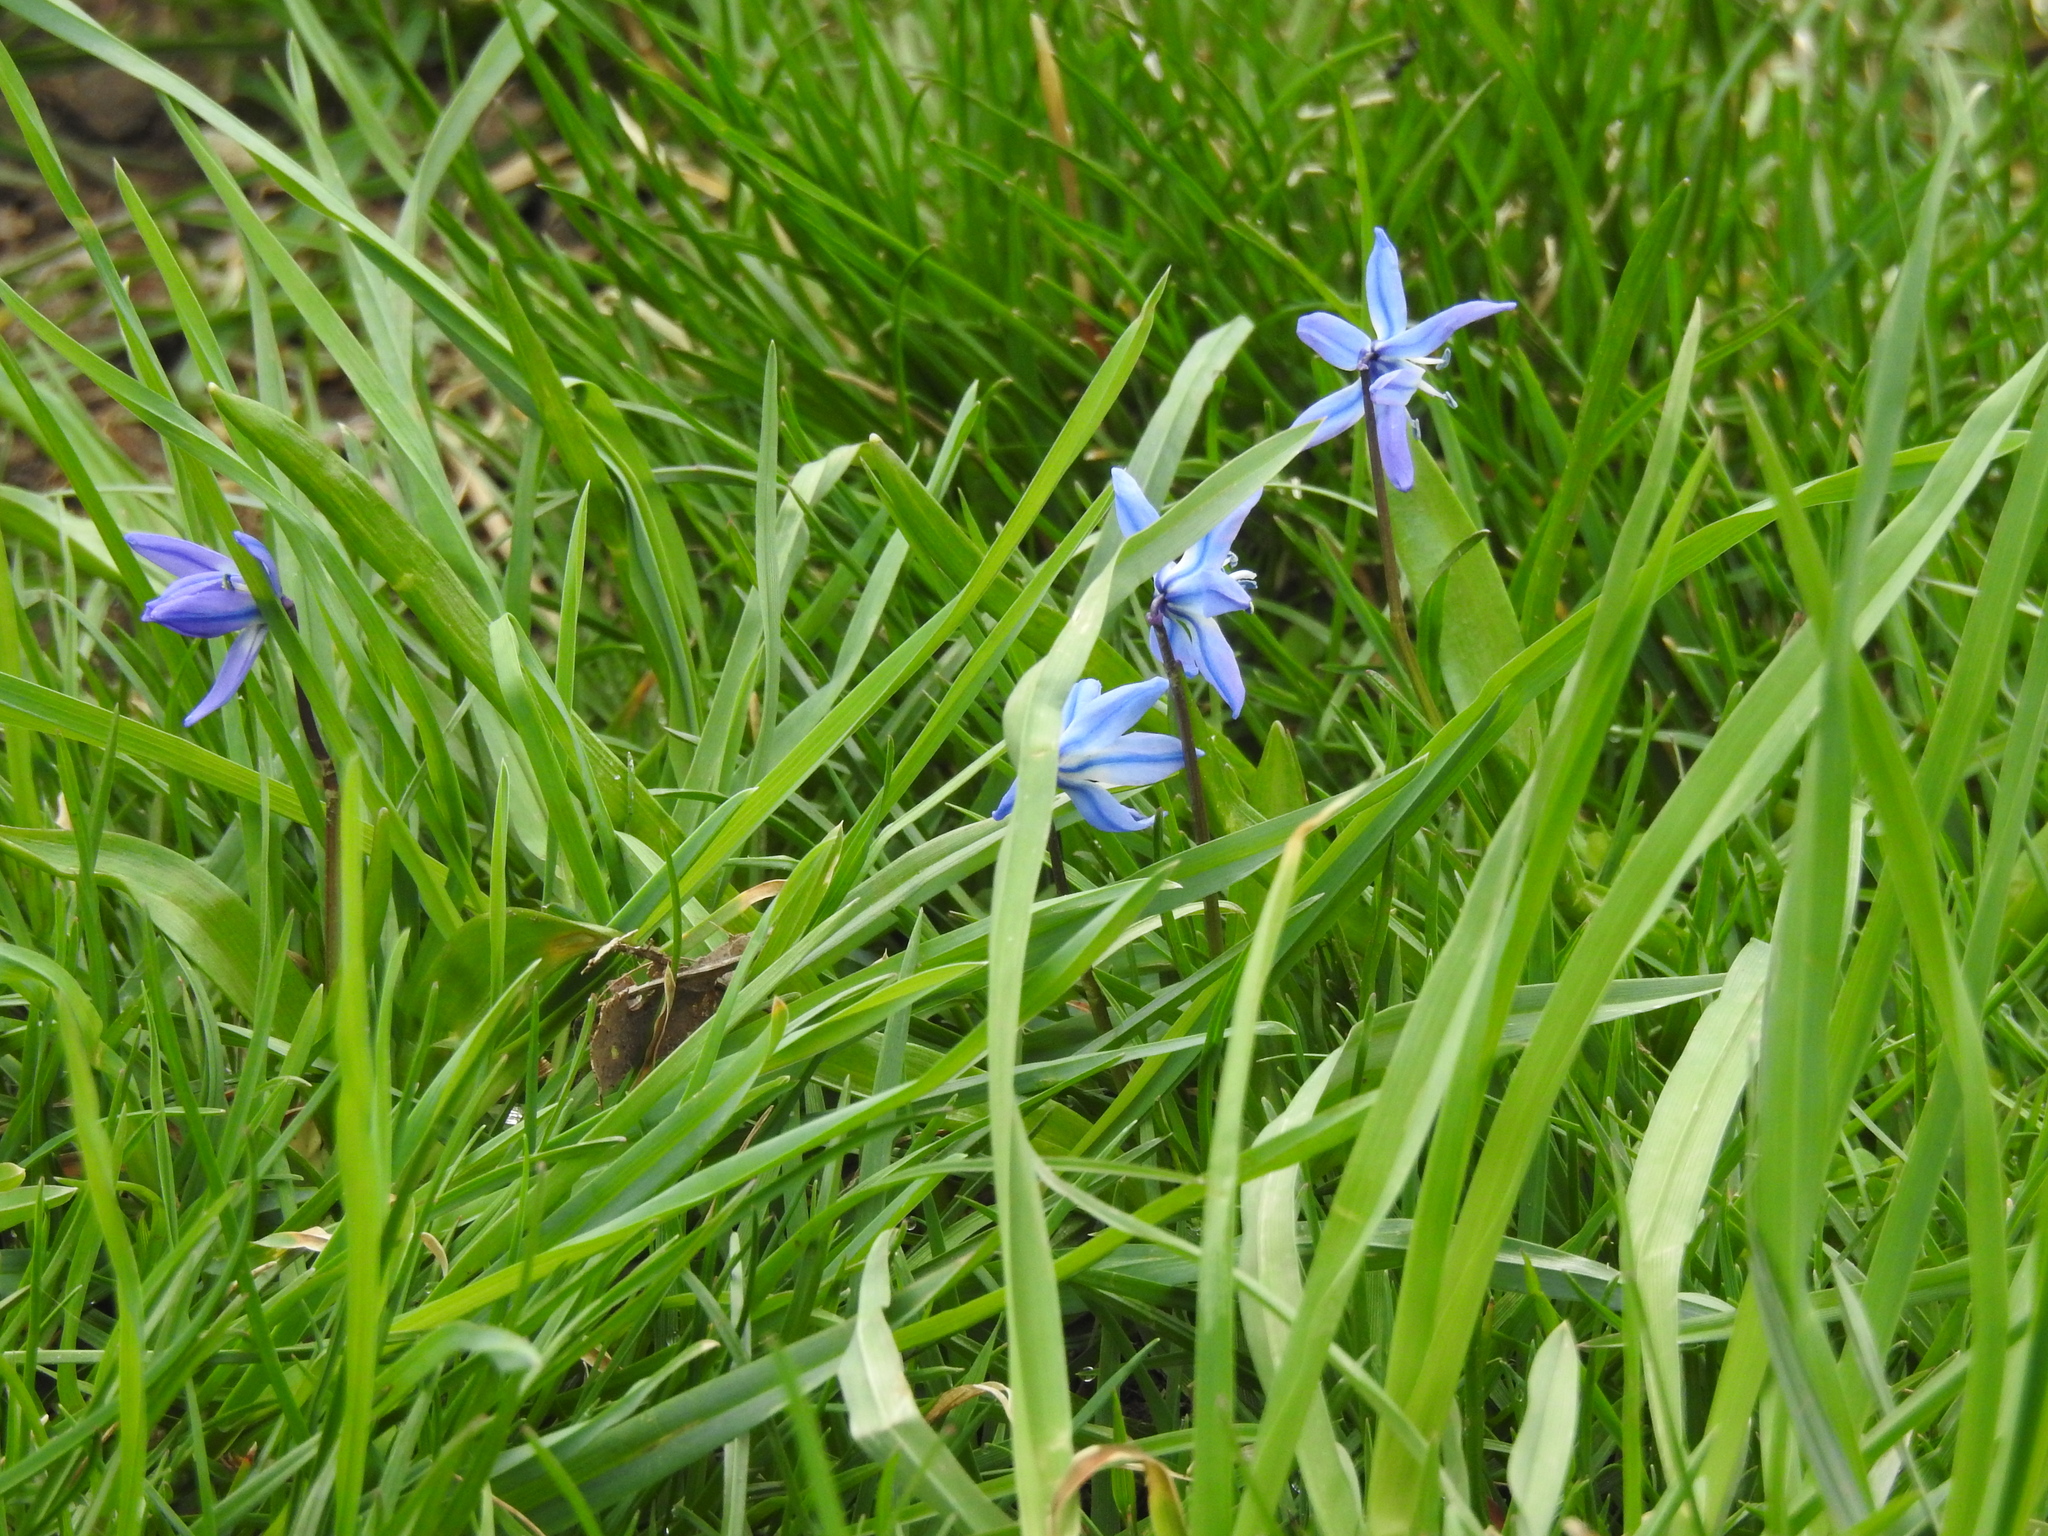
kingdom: Plantae
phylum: Tracheophyta
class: Liliopsida
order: Asparagales
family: Asparagaceae
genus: Scilla
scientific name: Scilla siberica
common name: Siberian squill
